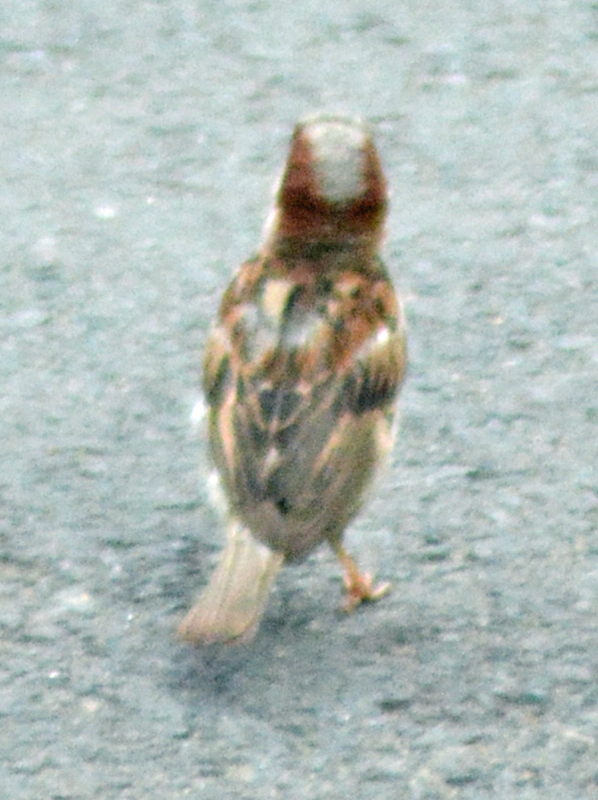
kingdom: Animalia
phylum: Chordata
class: Aves
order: Passeriformes
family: Passeridae
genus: Passer
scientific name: Passer domesticus
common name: House sparrow
